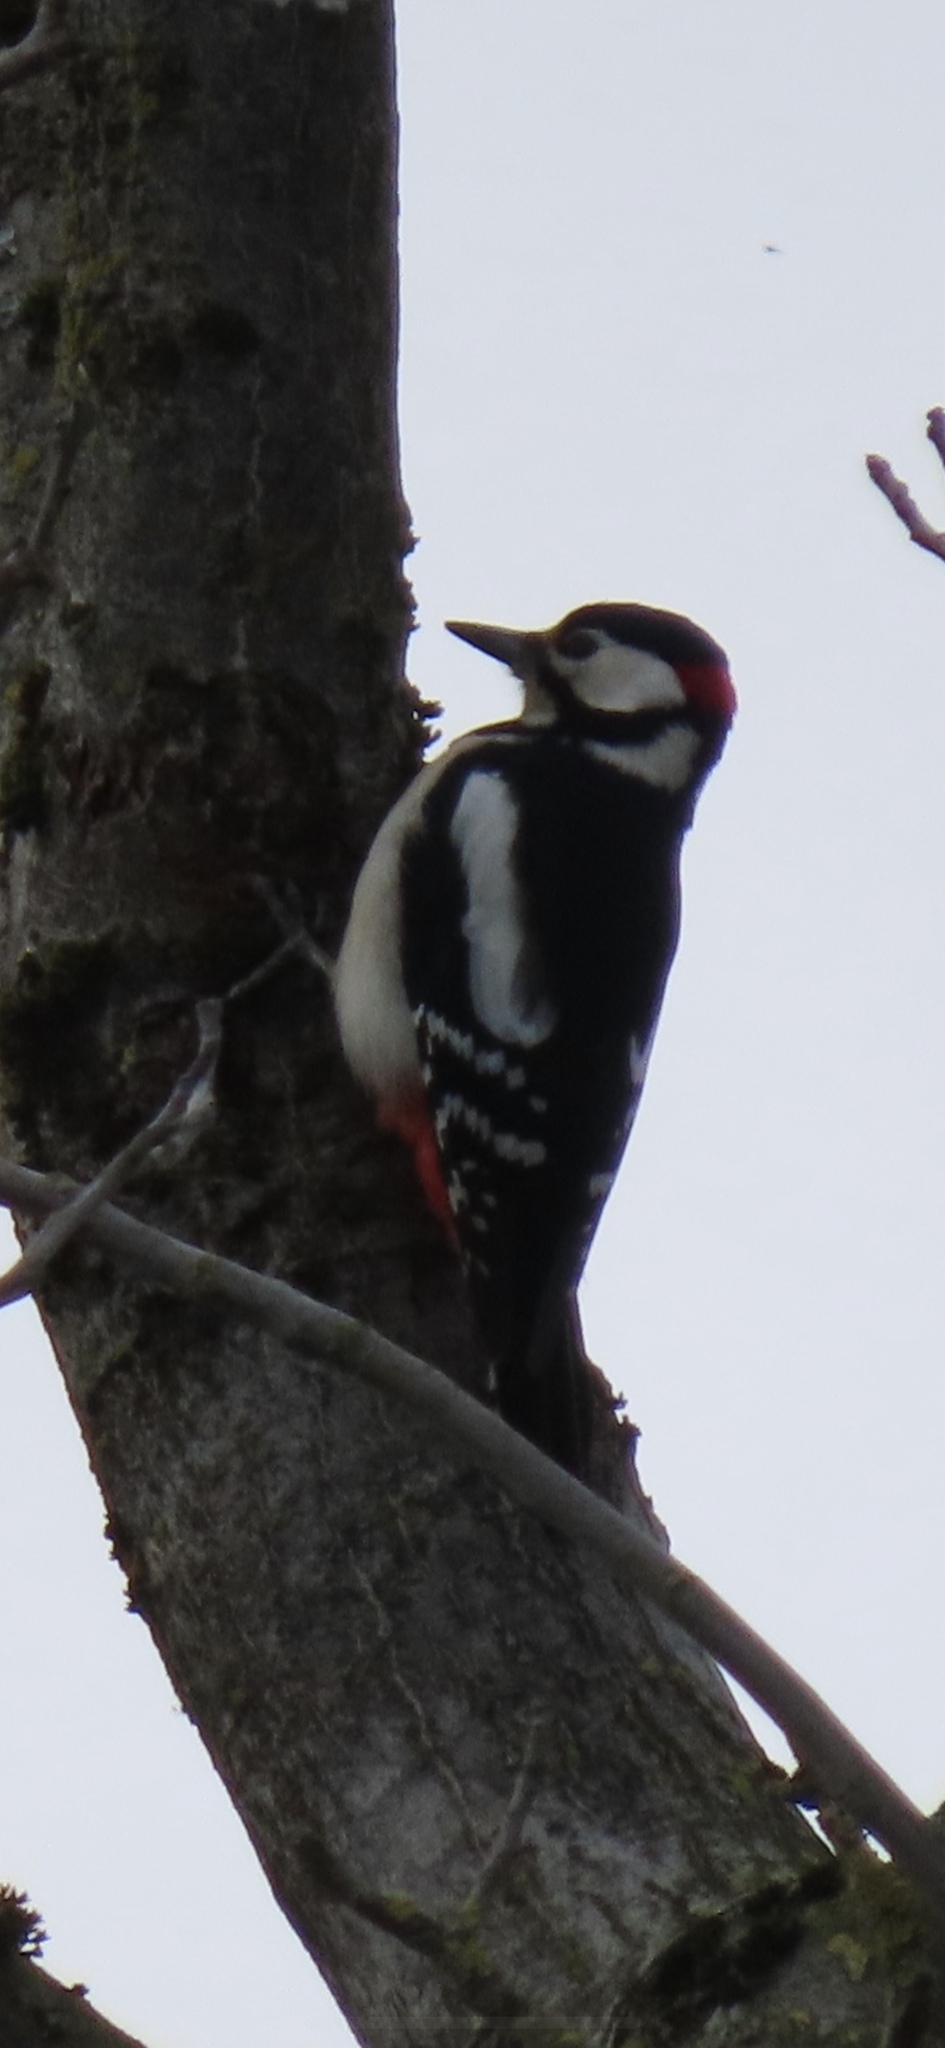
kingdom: Animalia
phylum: Chordata
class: Aves
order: Piciformes
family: Picidae
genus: Dendrocopos
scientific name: Dendrocopos major
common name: Great spotted woodpecker
